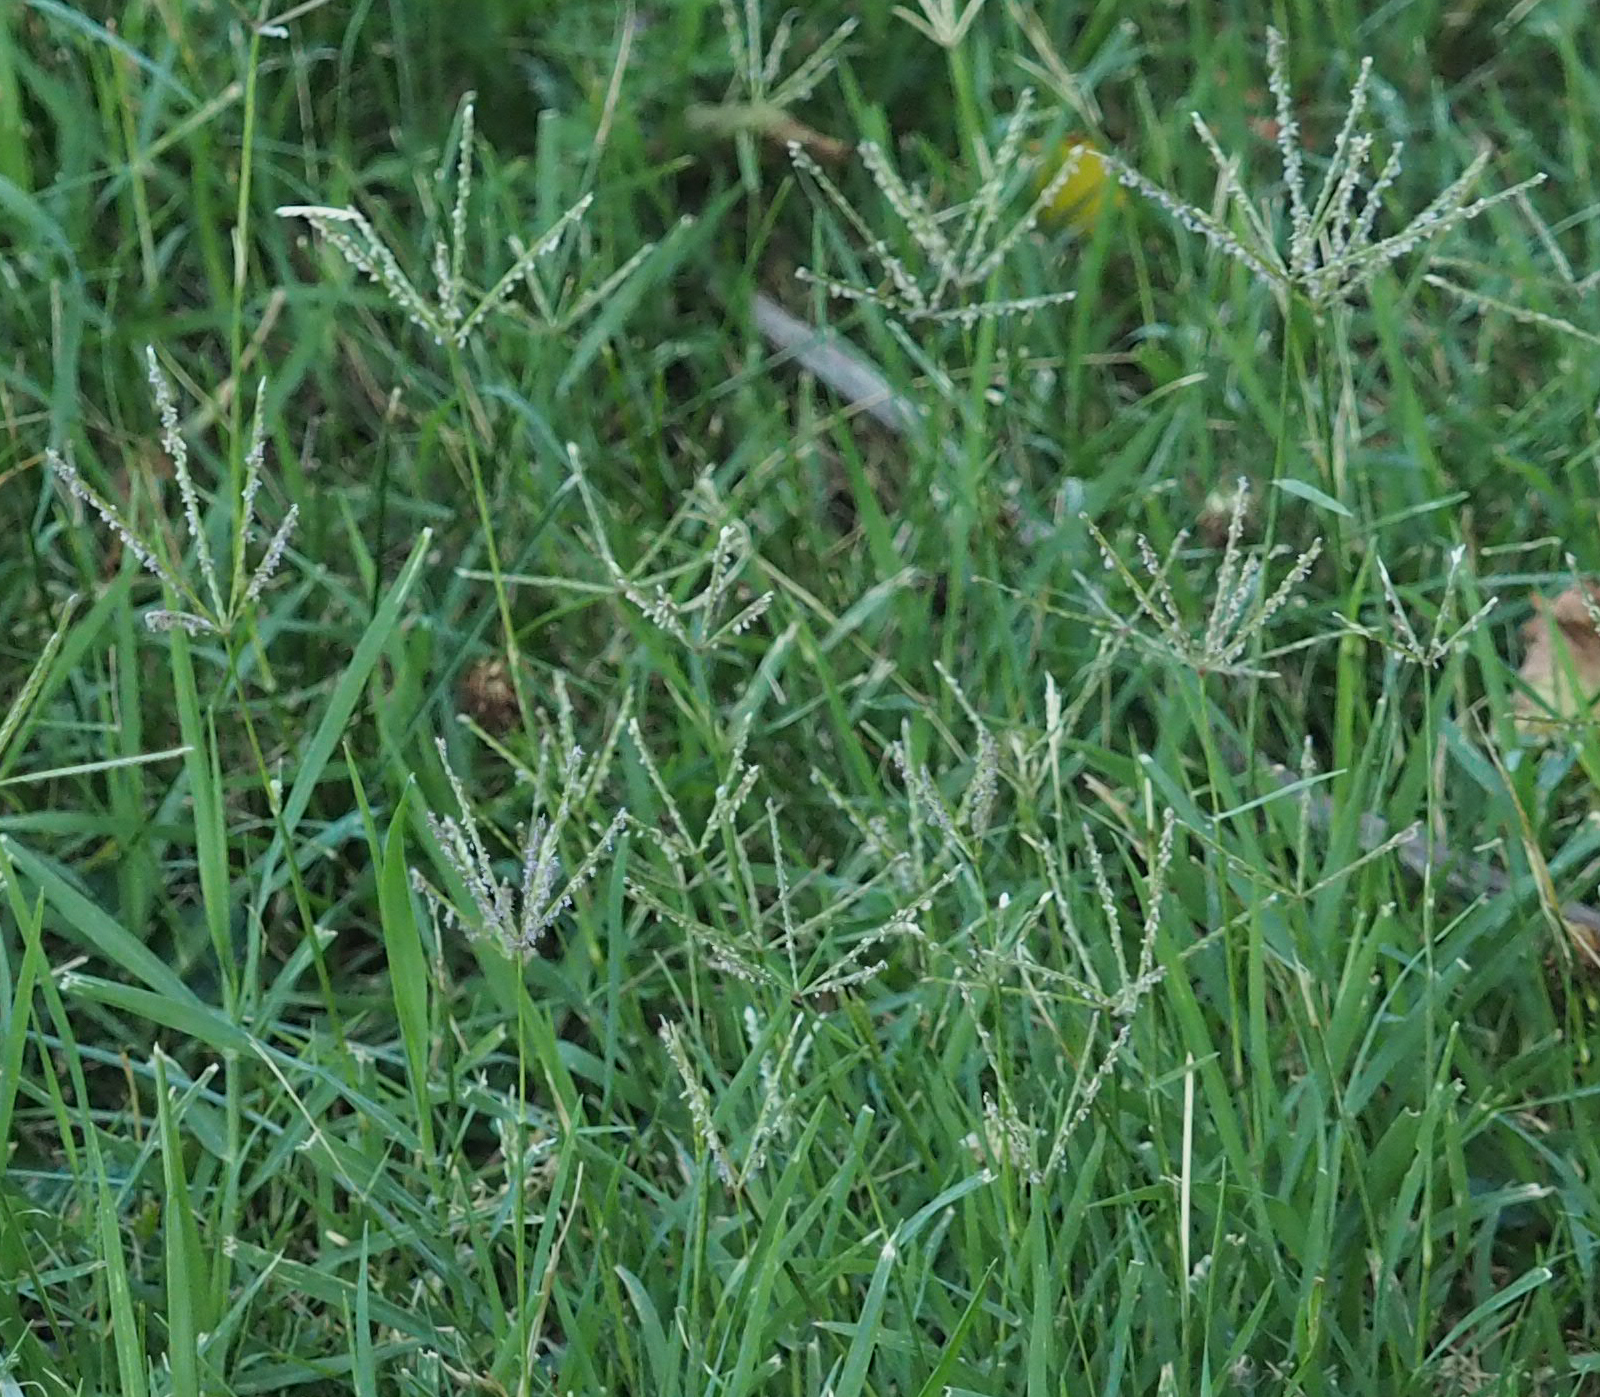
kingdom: Plantae
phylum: Tracheophyta
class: Liliopsida
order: Poales
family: Poaceae
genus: Cynodon
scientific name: Cynodon dactylon
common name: Bermuda grass
